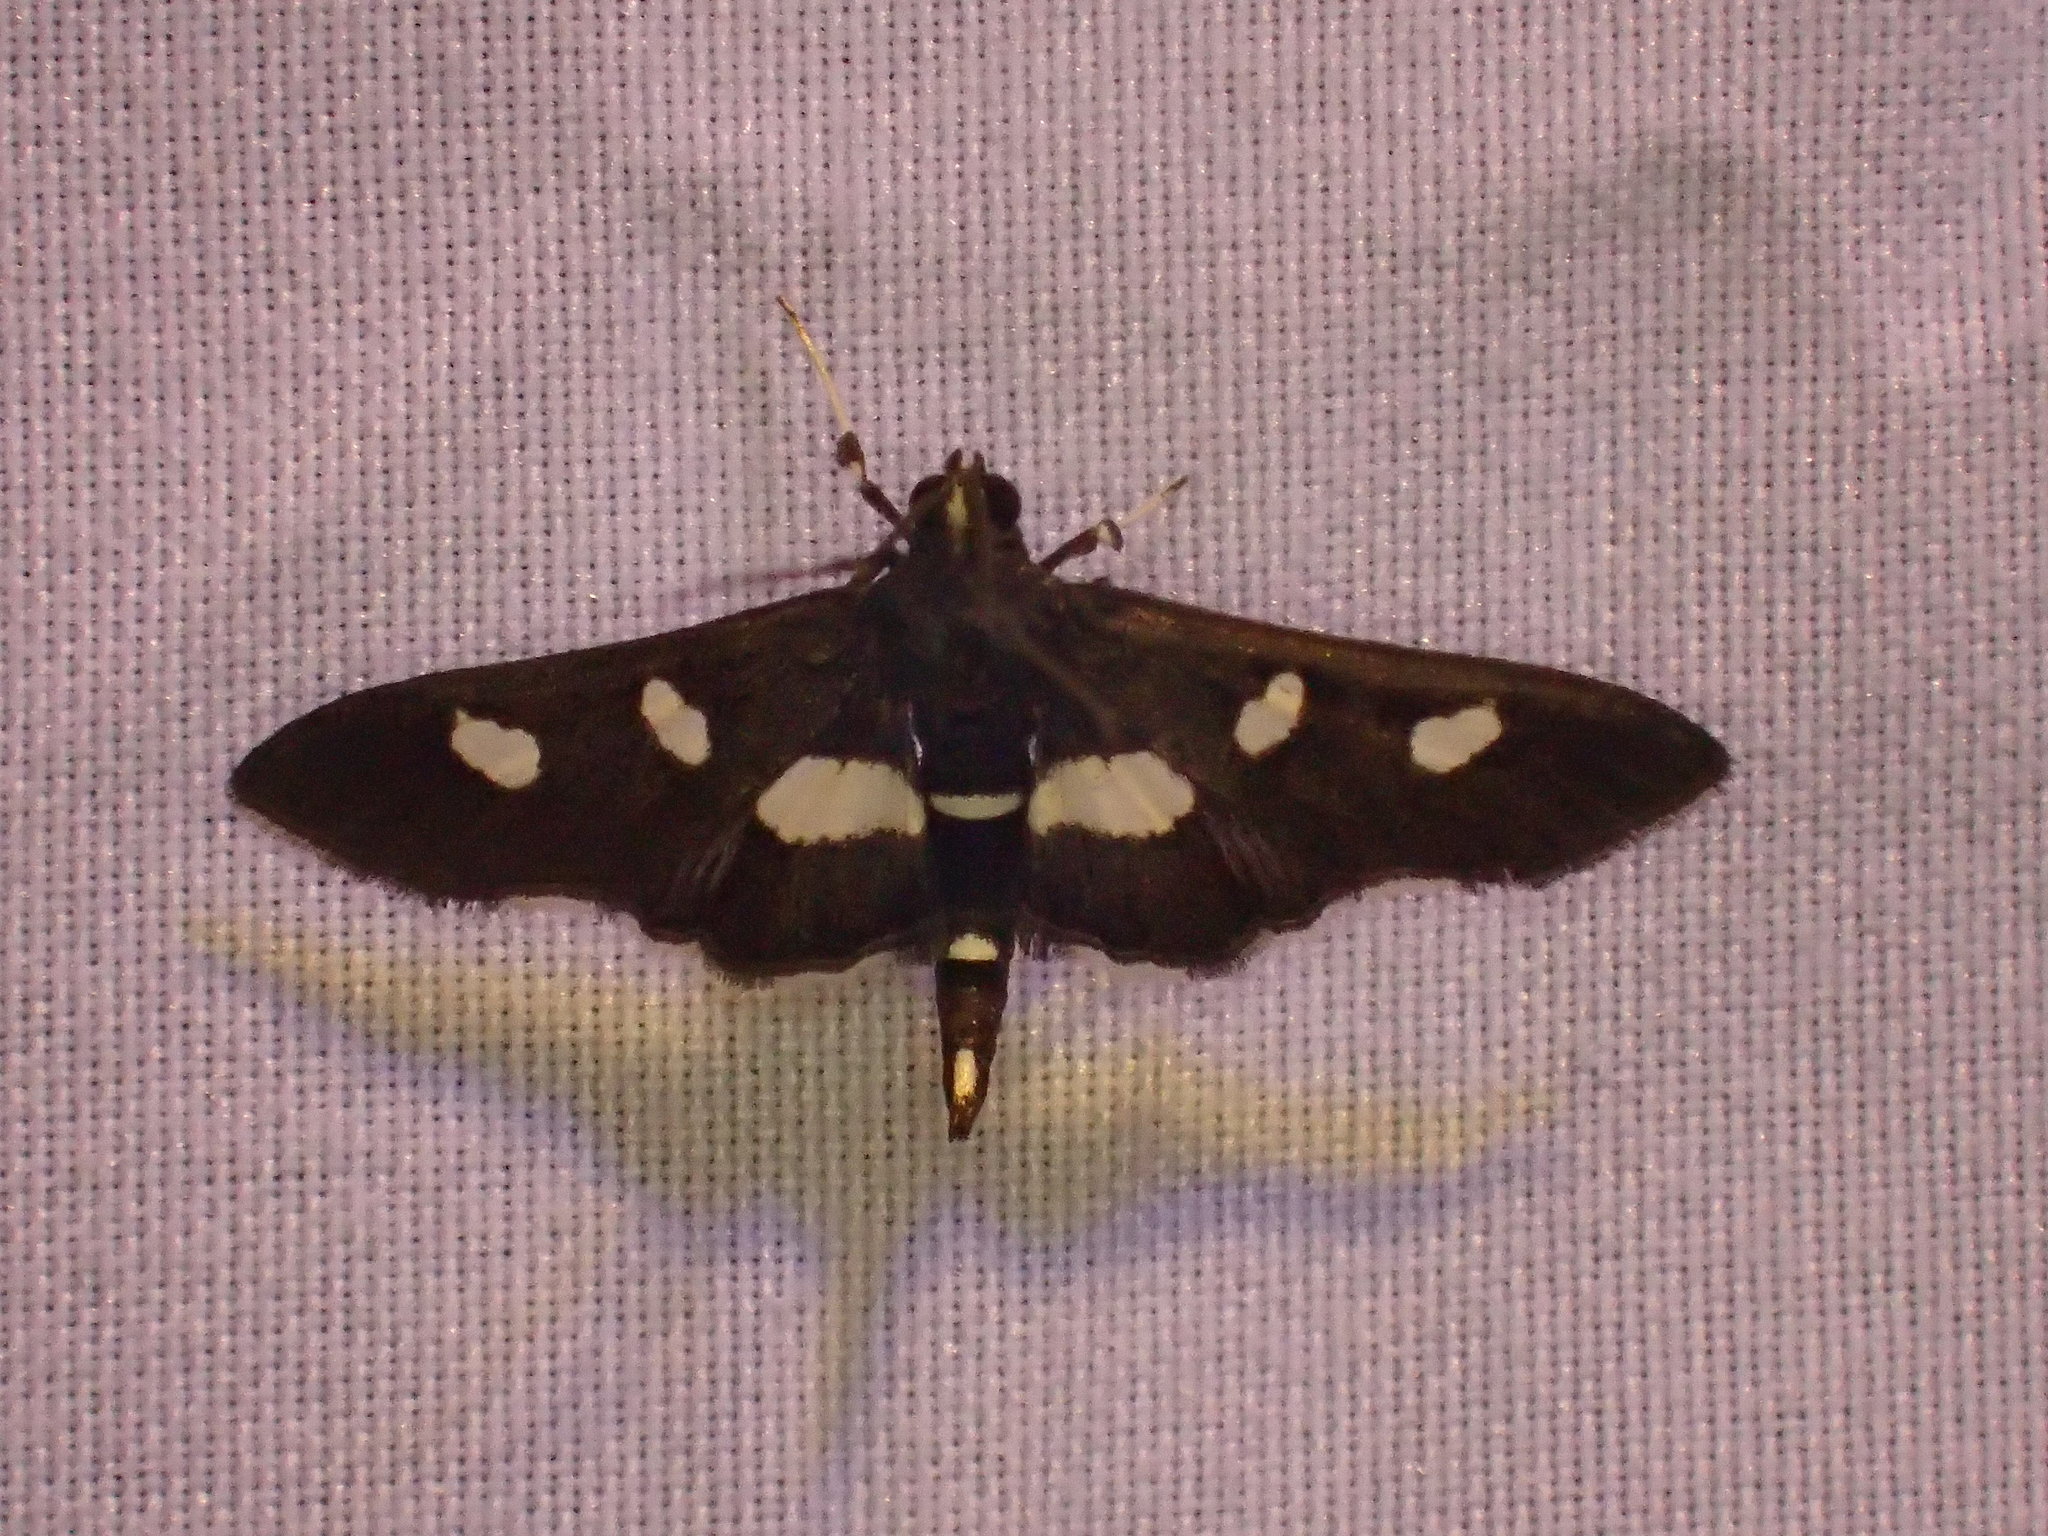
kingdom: Animalia
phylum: Arthropoda
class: Insecta
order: Lepidoptera
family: Crambidae
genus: Desmia
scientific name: Desmia funeralis
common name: Grape leaf folder moth
